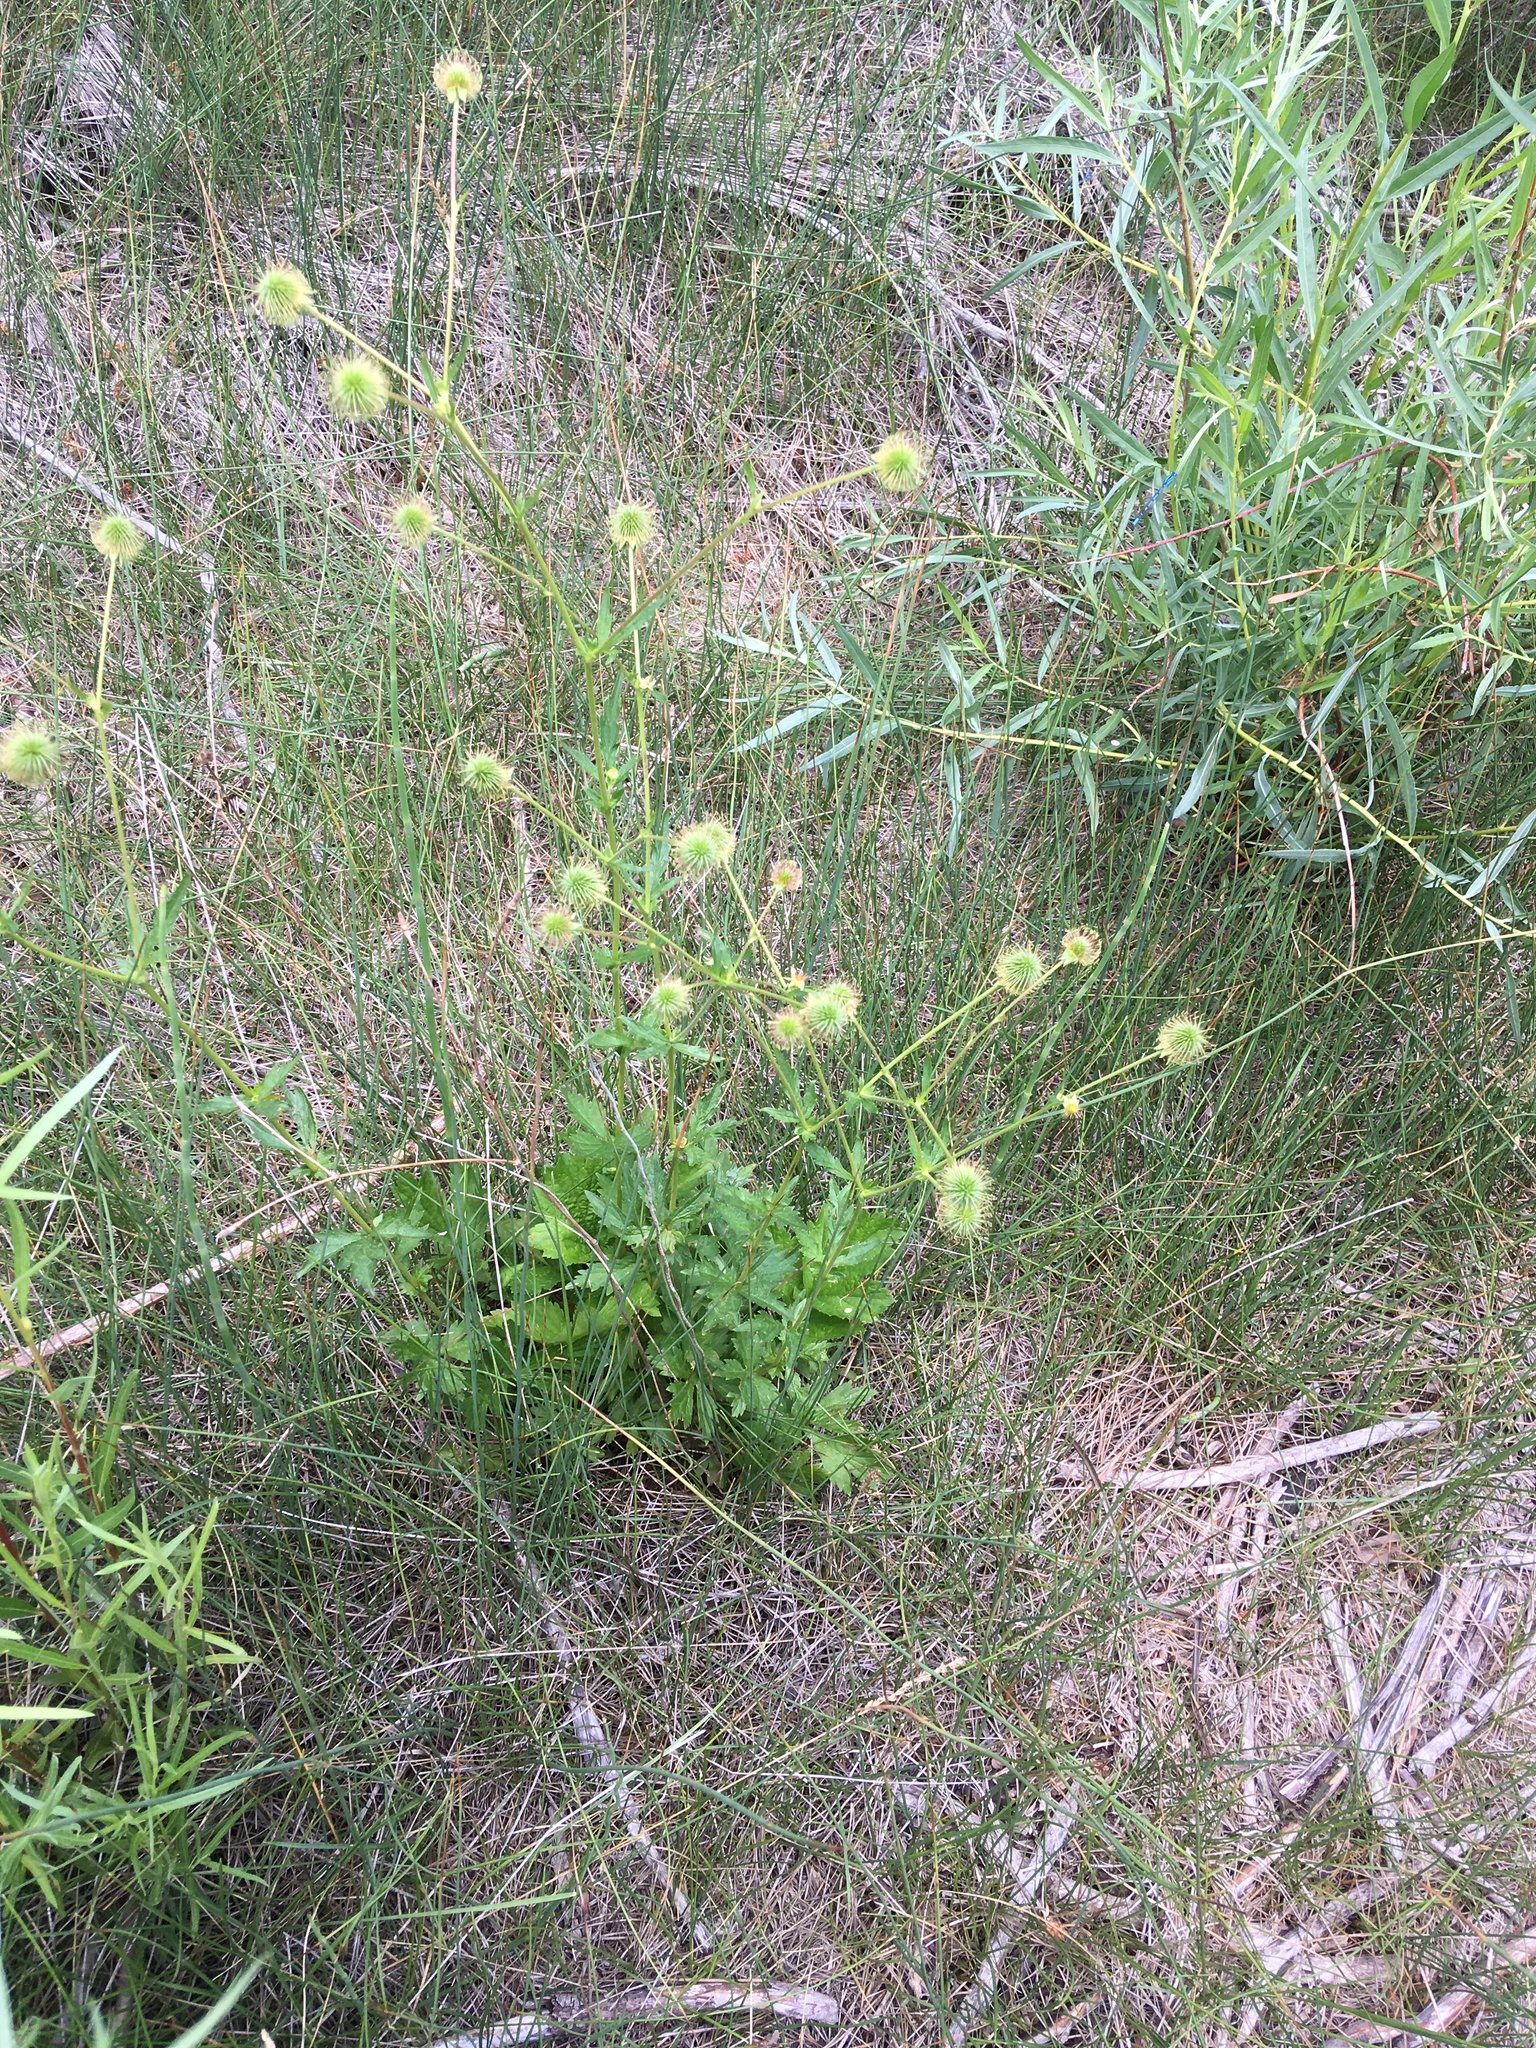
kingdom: Plantae
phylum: Tracheophyta
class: Magnoliopsida
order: Rosales
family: Rosaceae
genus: Geum
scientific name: Geum aleppicum
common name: Yellow avens
